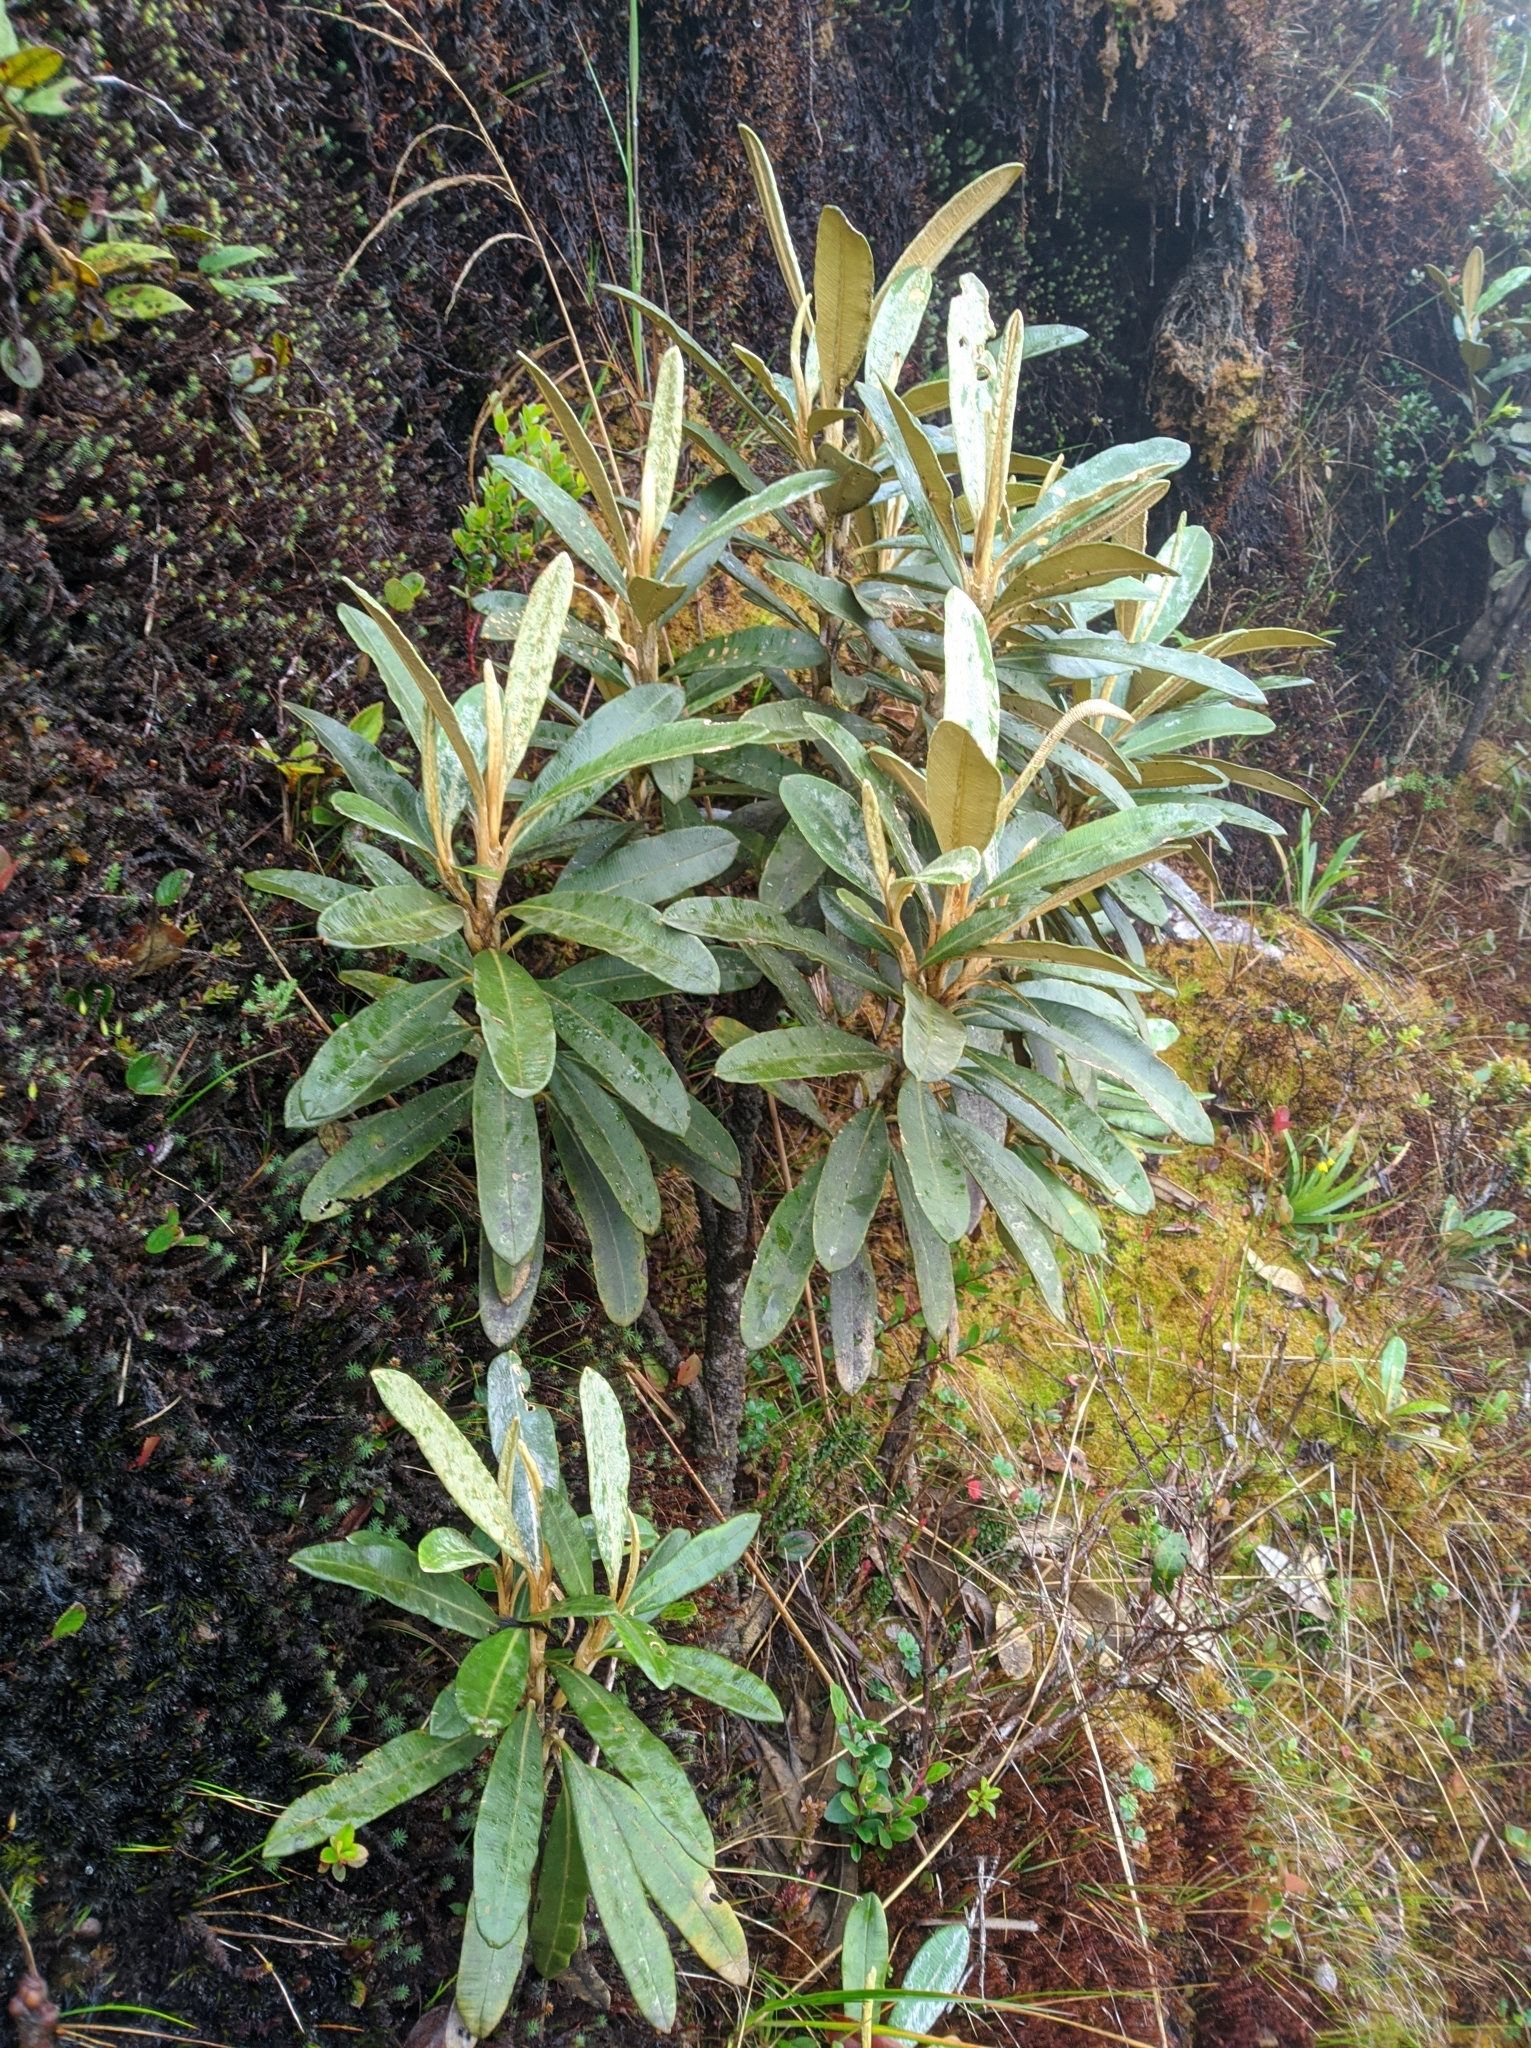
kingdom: Plantae
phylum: Tracheophyta
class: Magnoliopsida
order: Asterales
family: Asteraceae
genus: Espeletia
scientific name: Espeletia neriifolia
